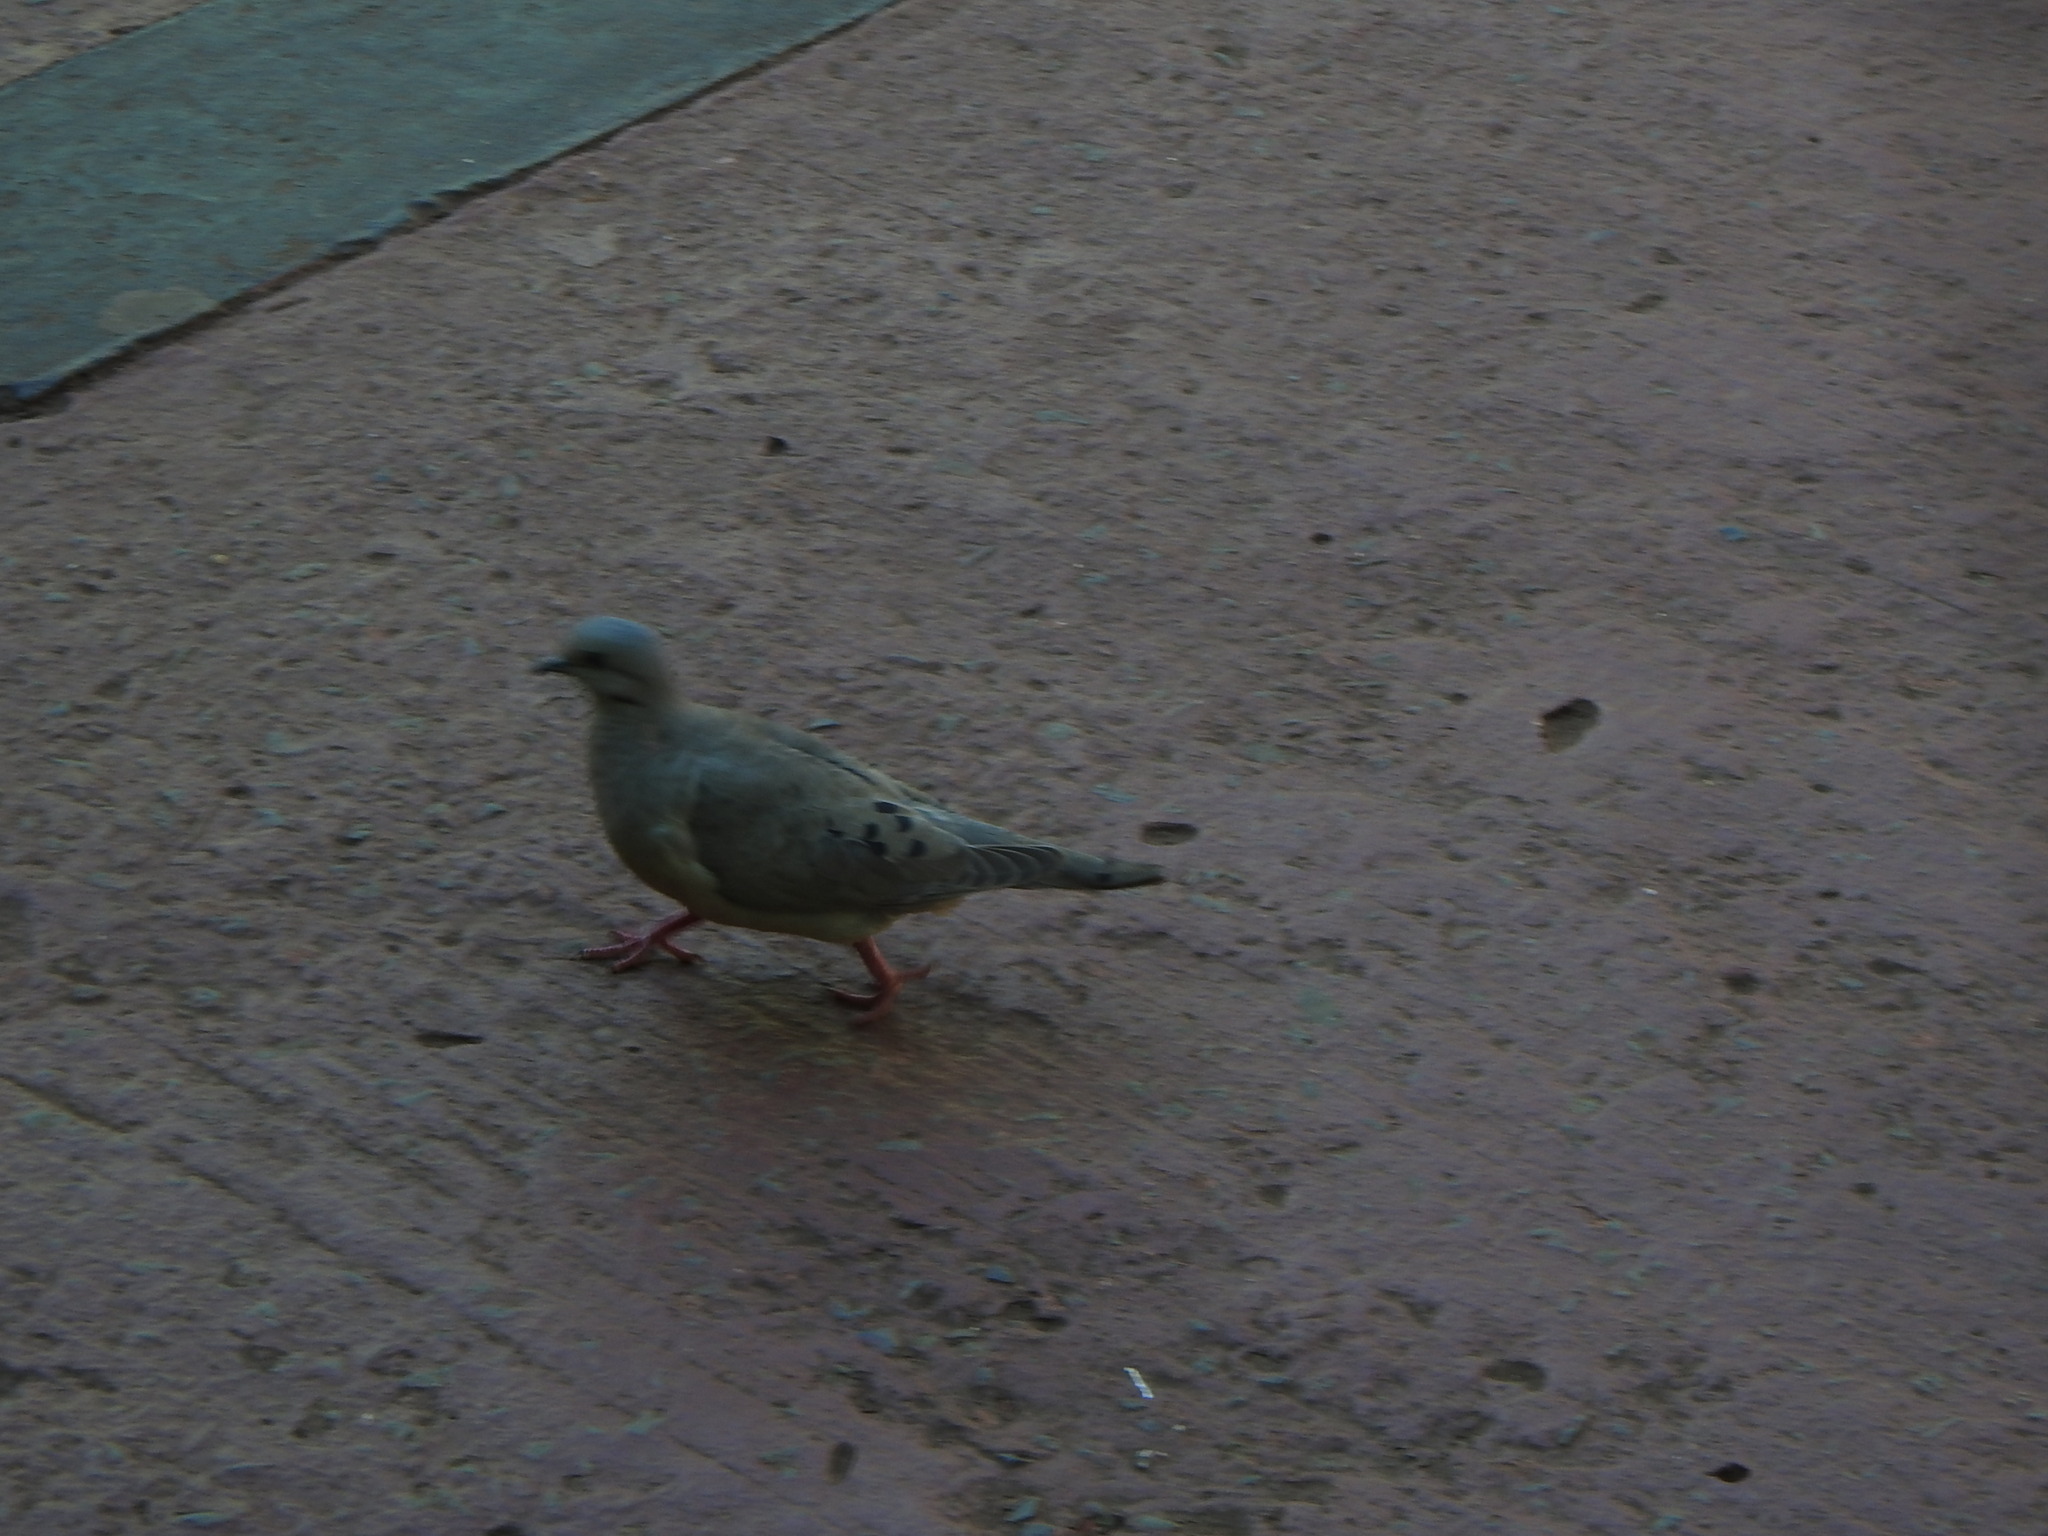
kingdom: Animalia
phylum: Chordata
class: Aves
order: Columbiformes
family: Columbidae
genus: Zenaida
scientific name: Zenaida auriculata
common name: Eared dove
